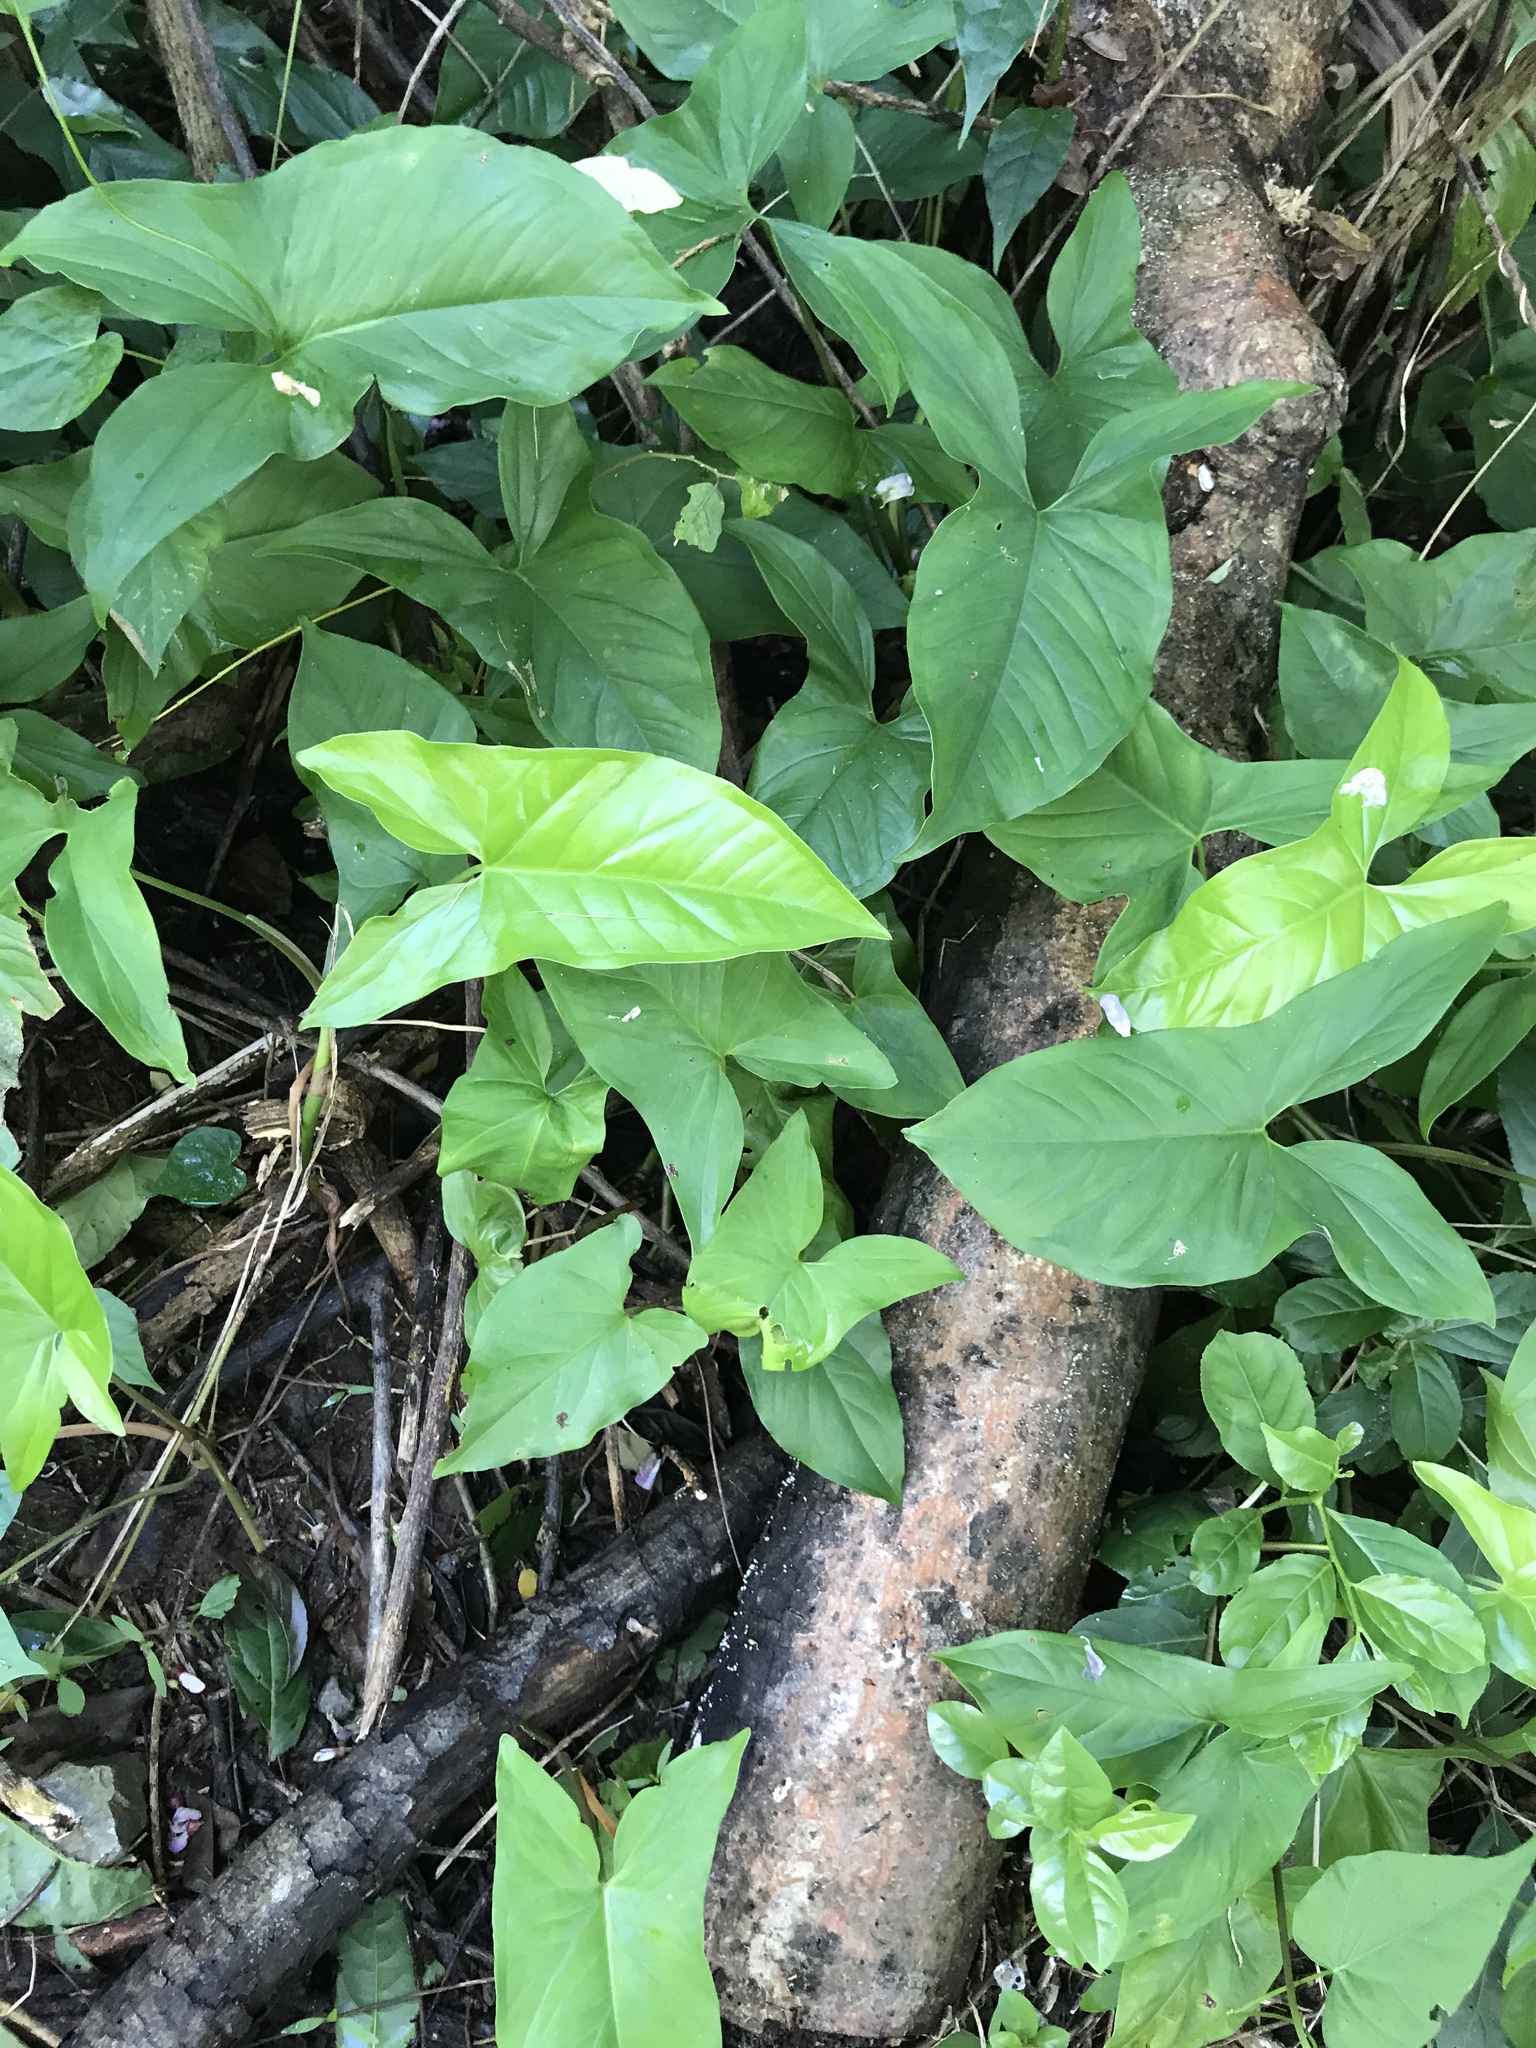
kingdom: Plantae
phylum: Tracheophyta
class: Liliopsida
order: Alismatales
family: Araceae
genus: Syngonium
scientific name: Syngonium podophyllum
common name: American evergreen
